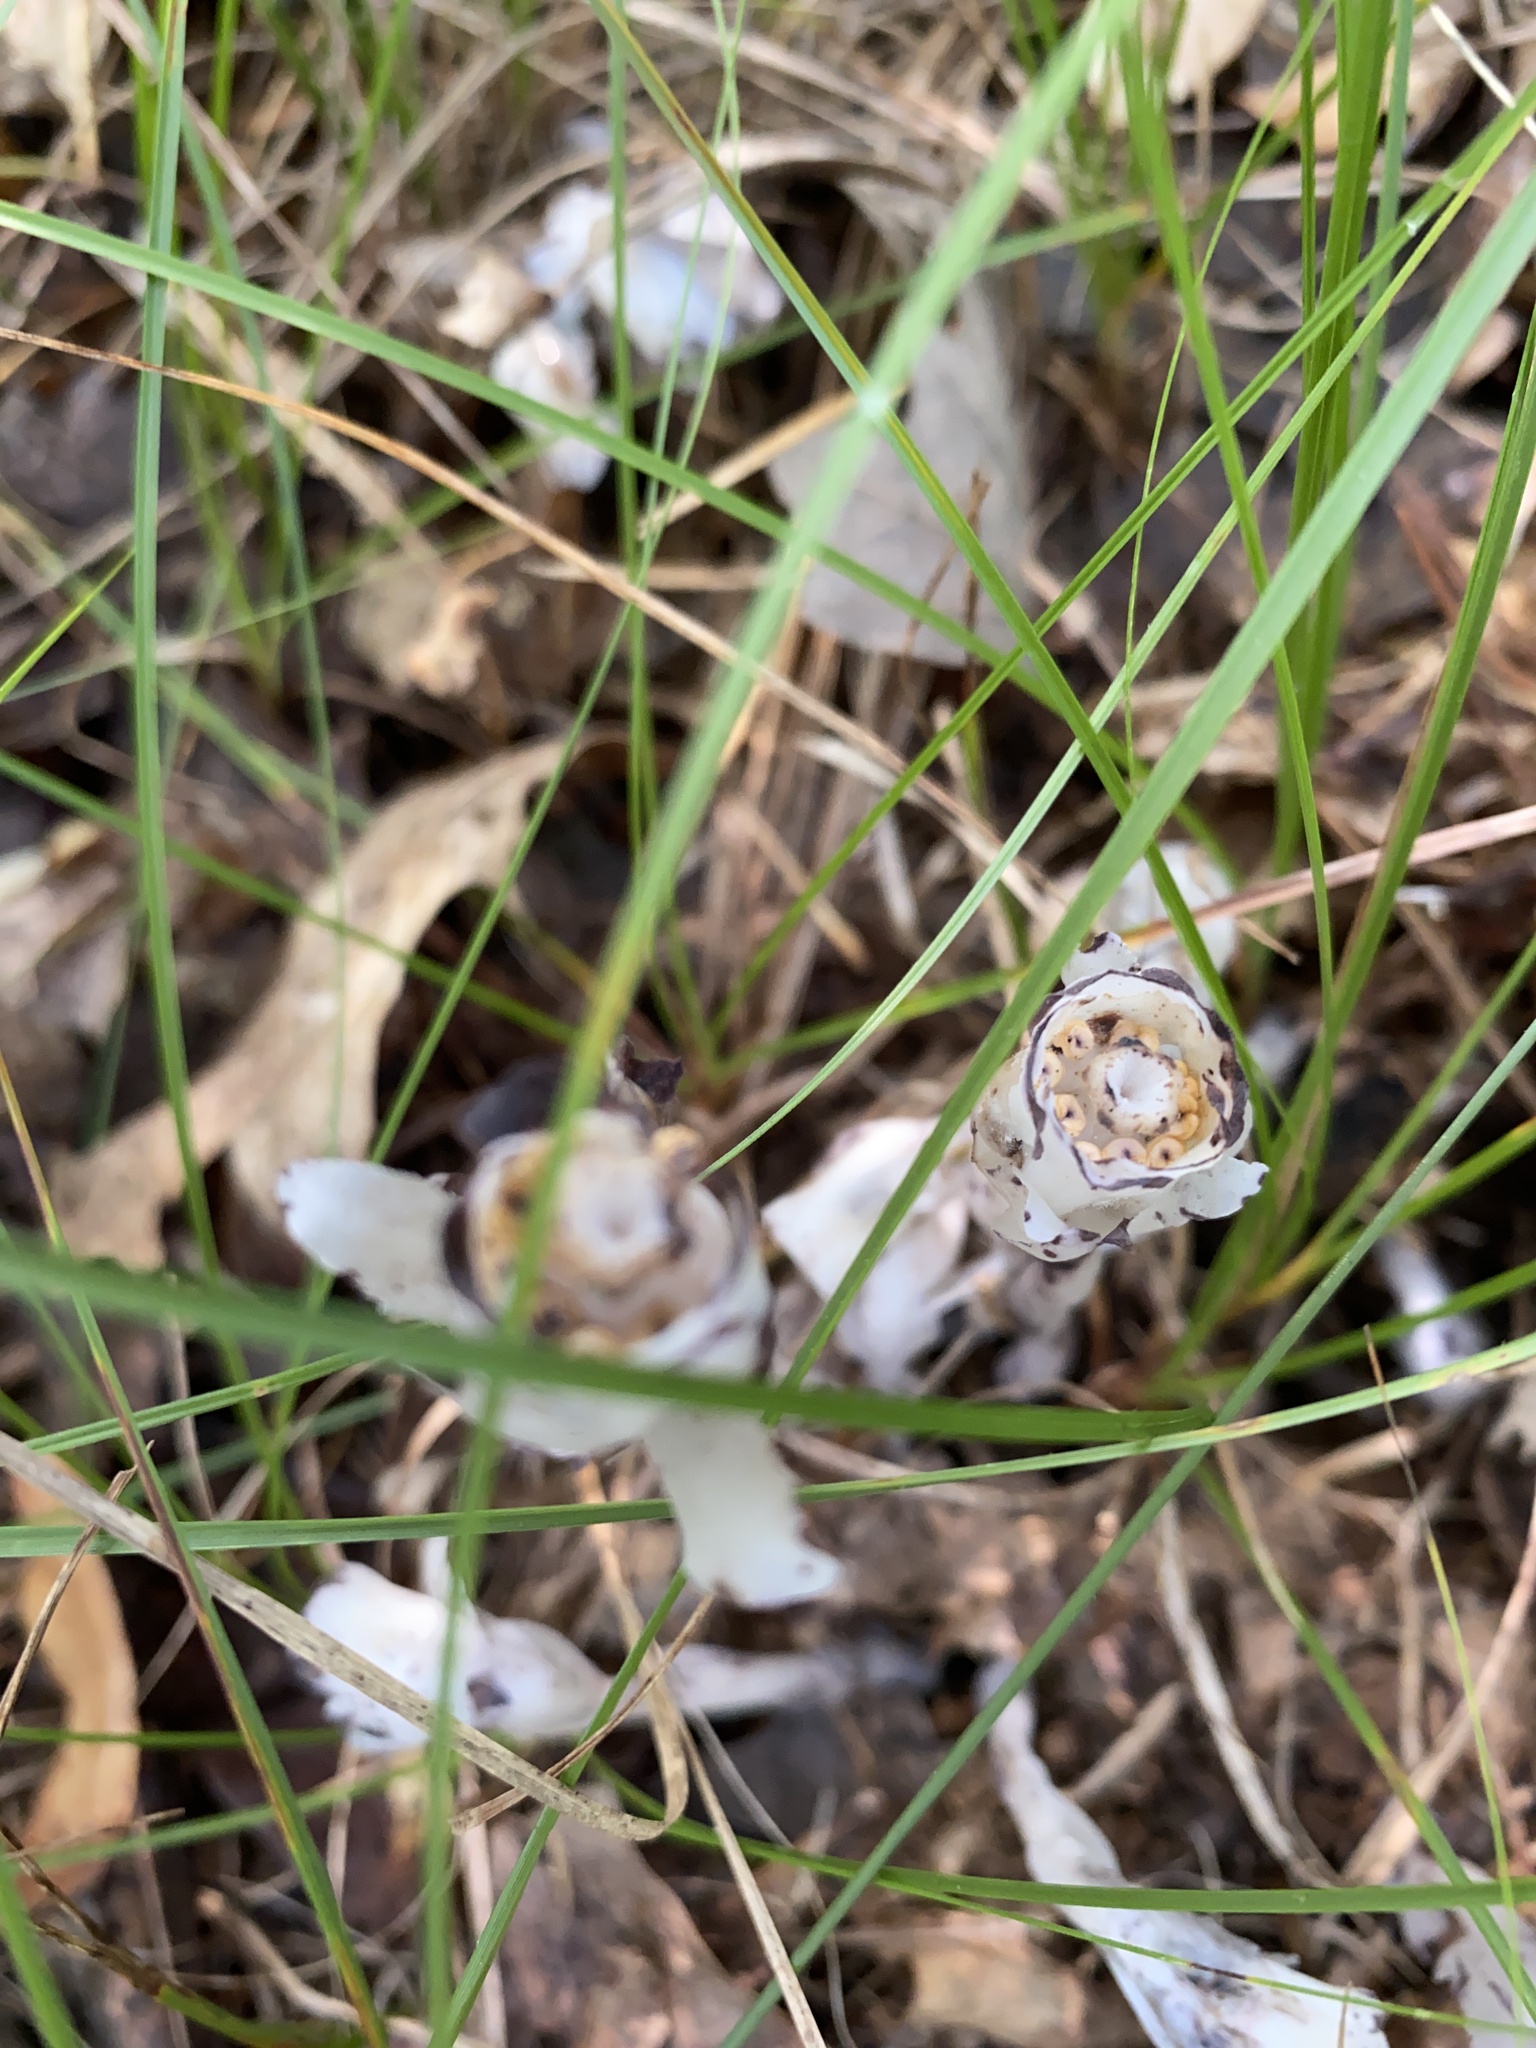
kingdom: Plantae
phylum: Tracheophyta
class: Magnoliopsida
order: Ericales
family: Ericaceae
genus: Monotropa
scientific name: Monotropa uniflora
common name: Convulsion root
